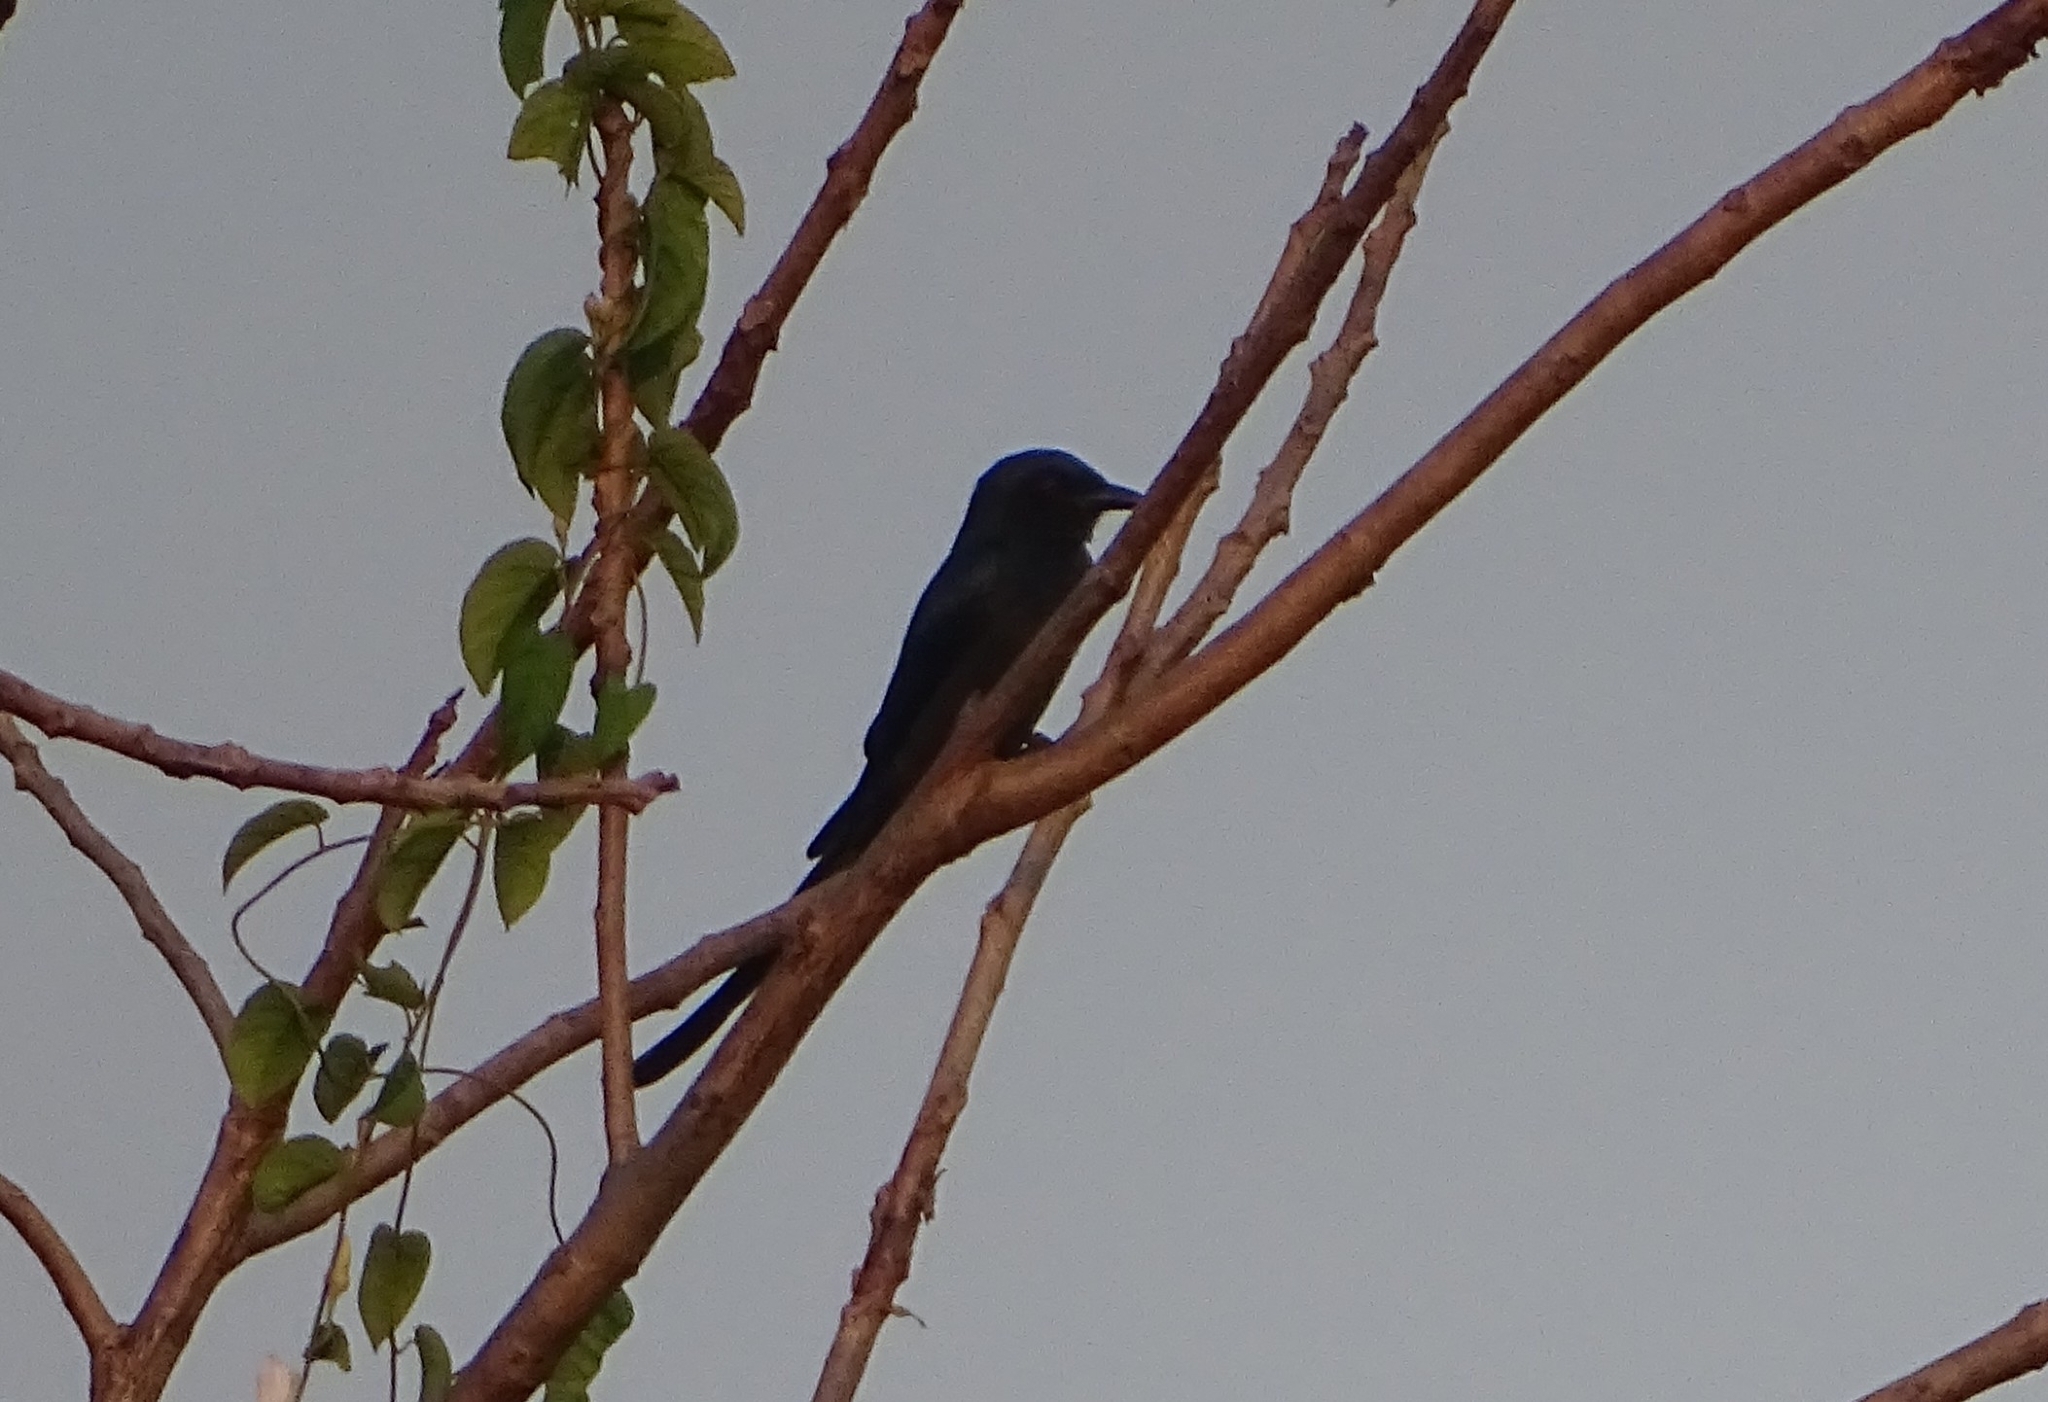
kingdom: Animalia
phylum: Chordata
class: Aves
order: Passeriformes
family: Dicruridae
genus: Dicrurus
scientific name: Dicrurus macrocercus
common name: Black drongo
